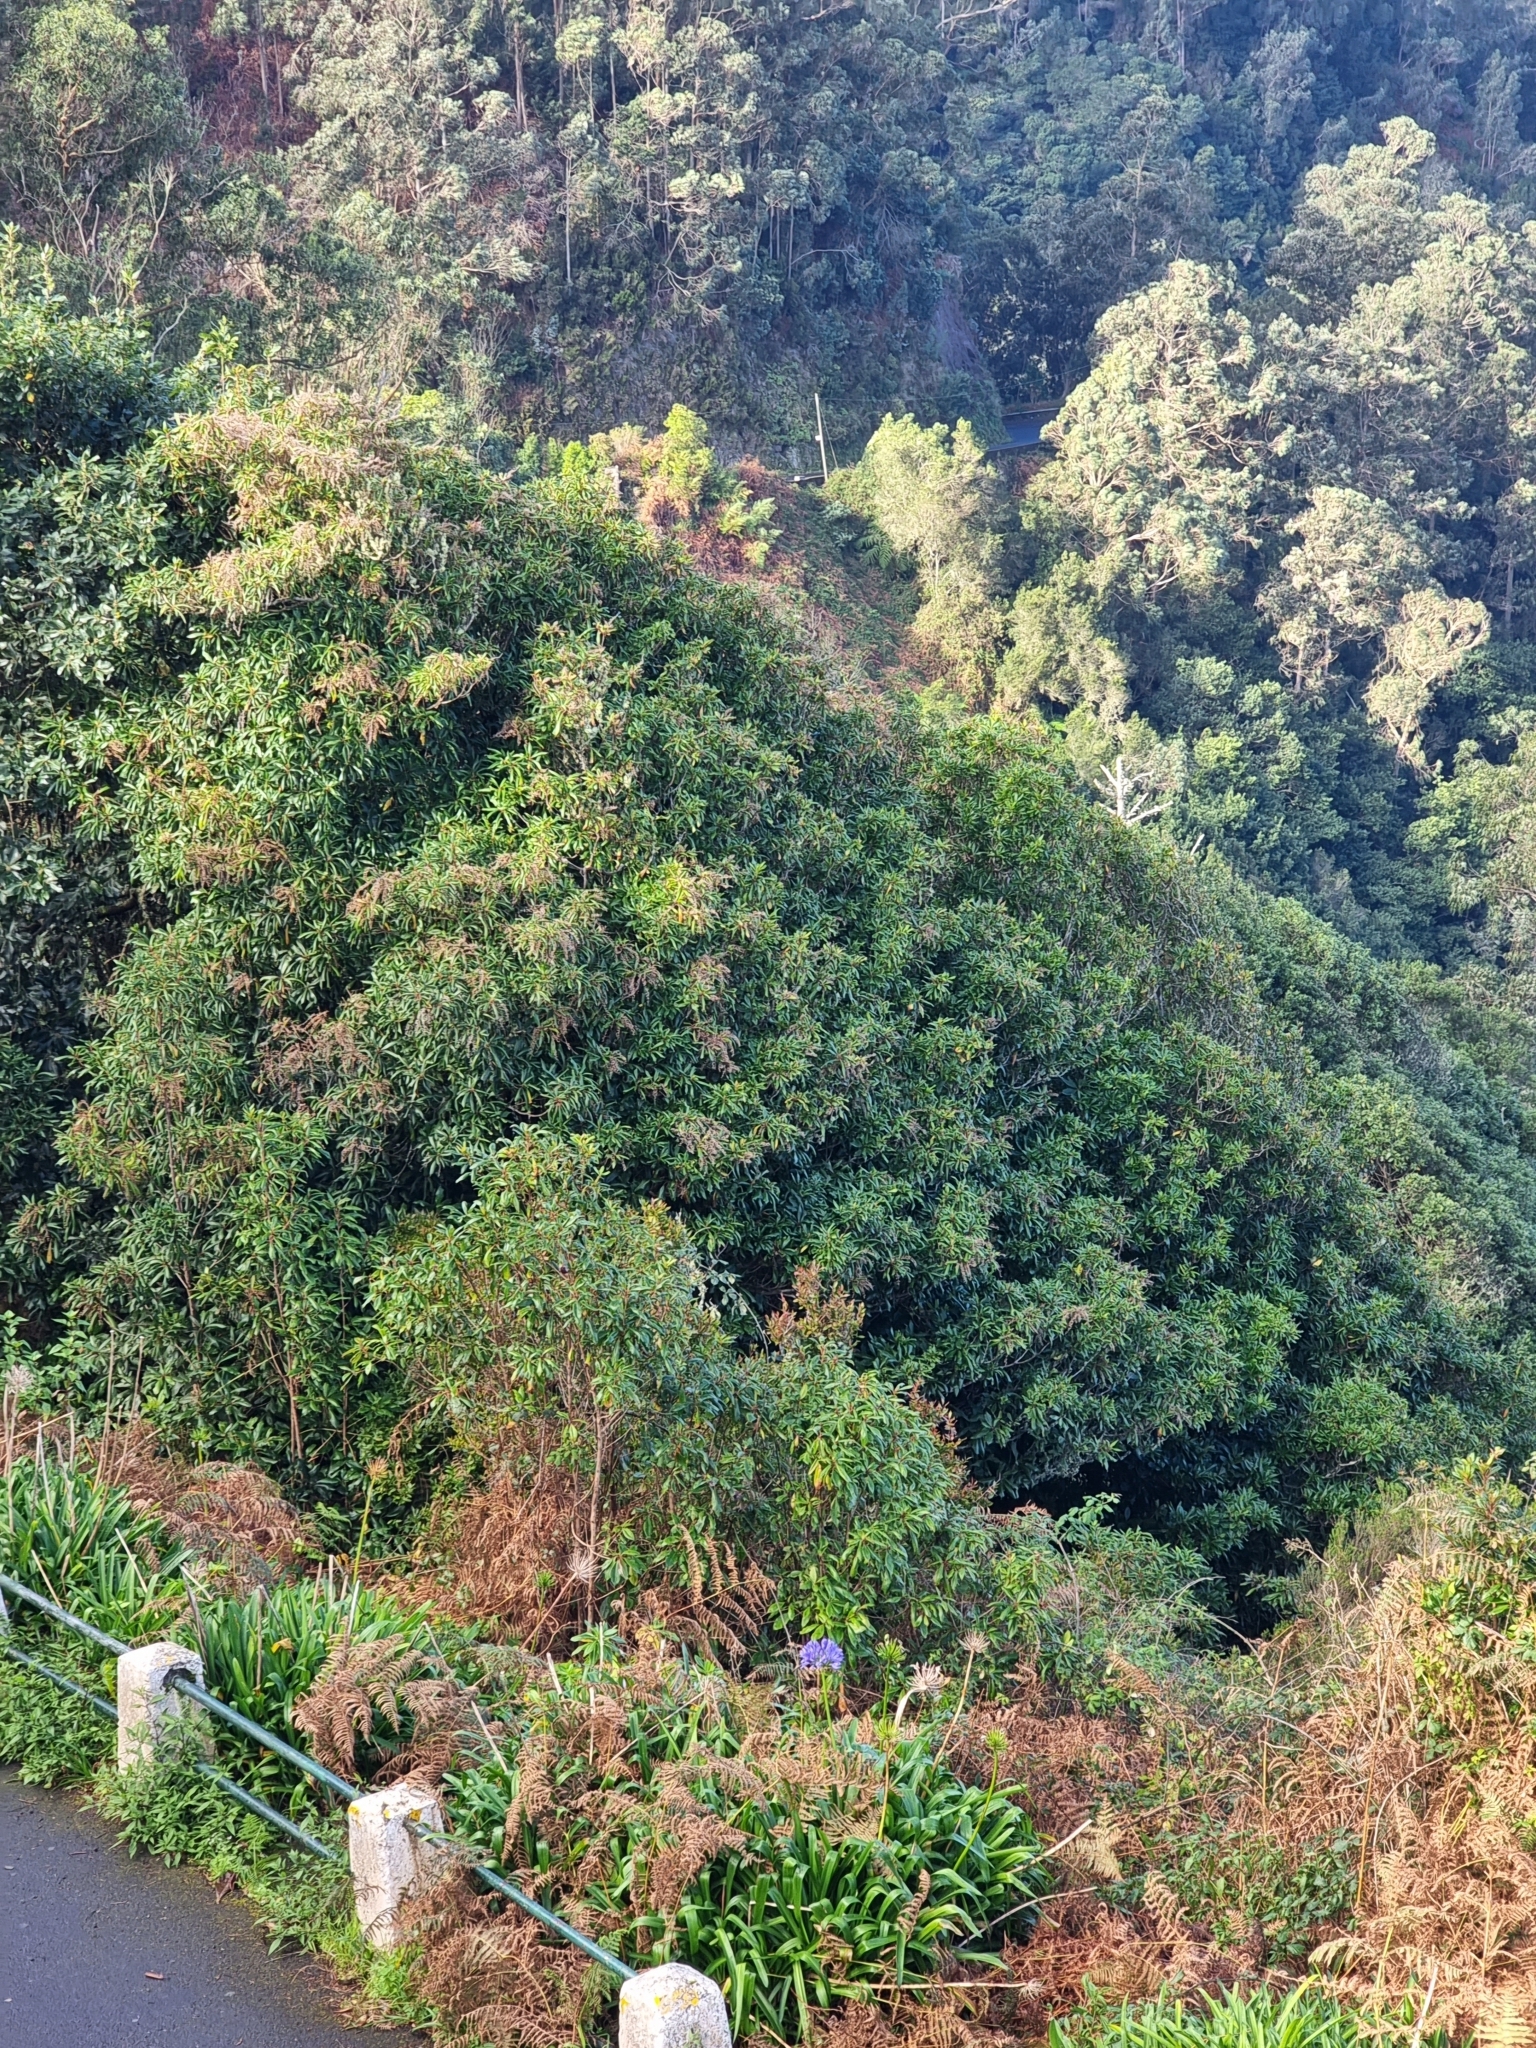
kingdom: Plantae
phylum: Tracheophyta
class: Magnoliopsida
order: Ericales
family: Clethraceae
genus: Clethra
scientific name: Clethra arborea
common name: Lily-of-the-valley-tree
